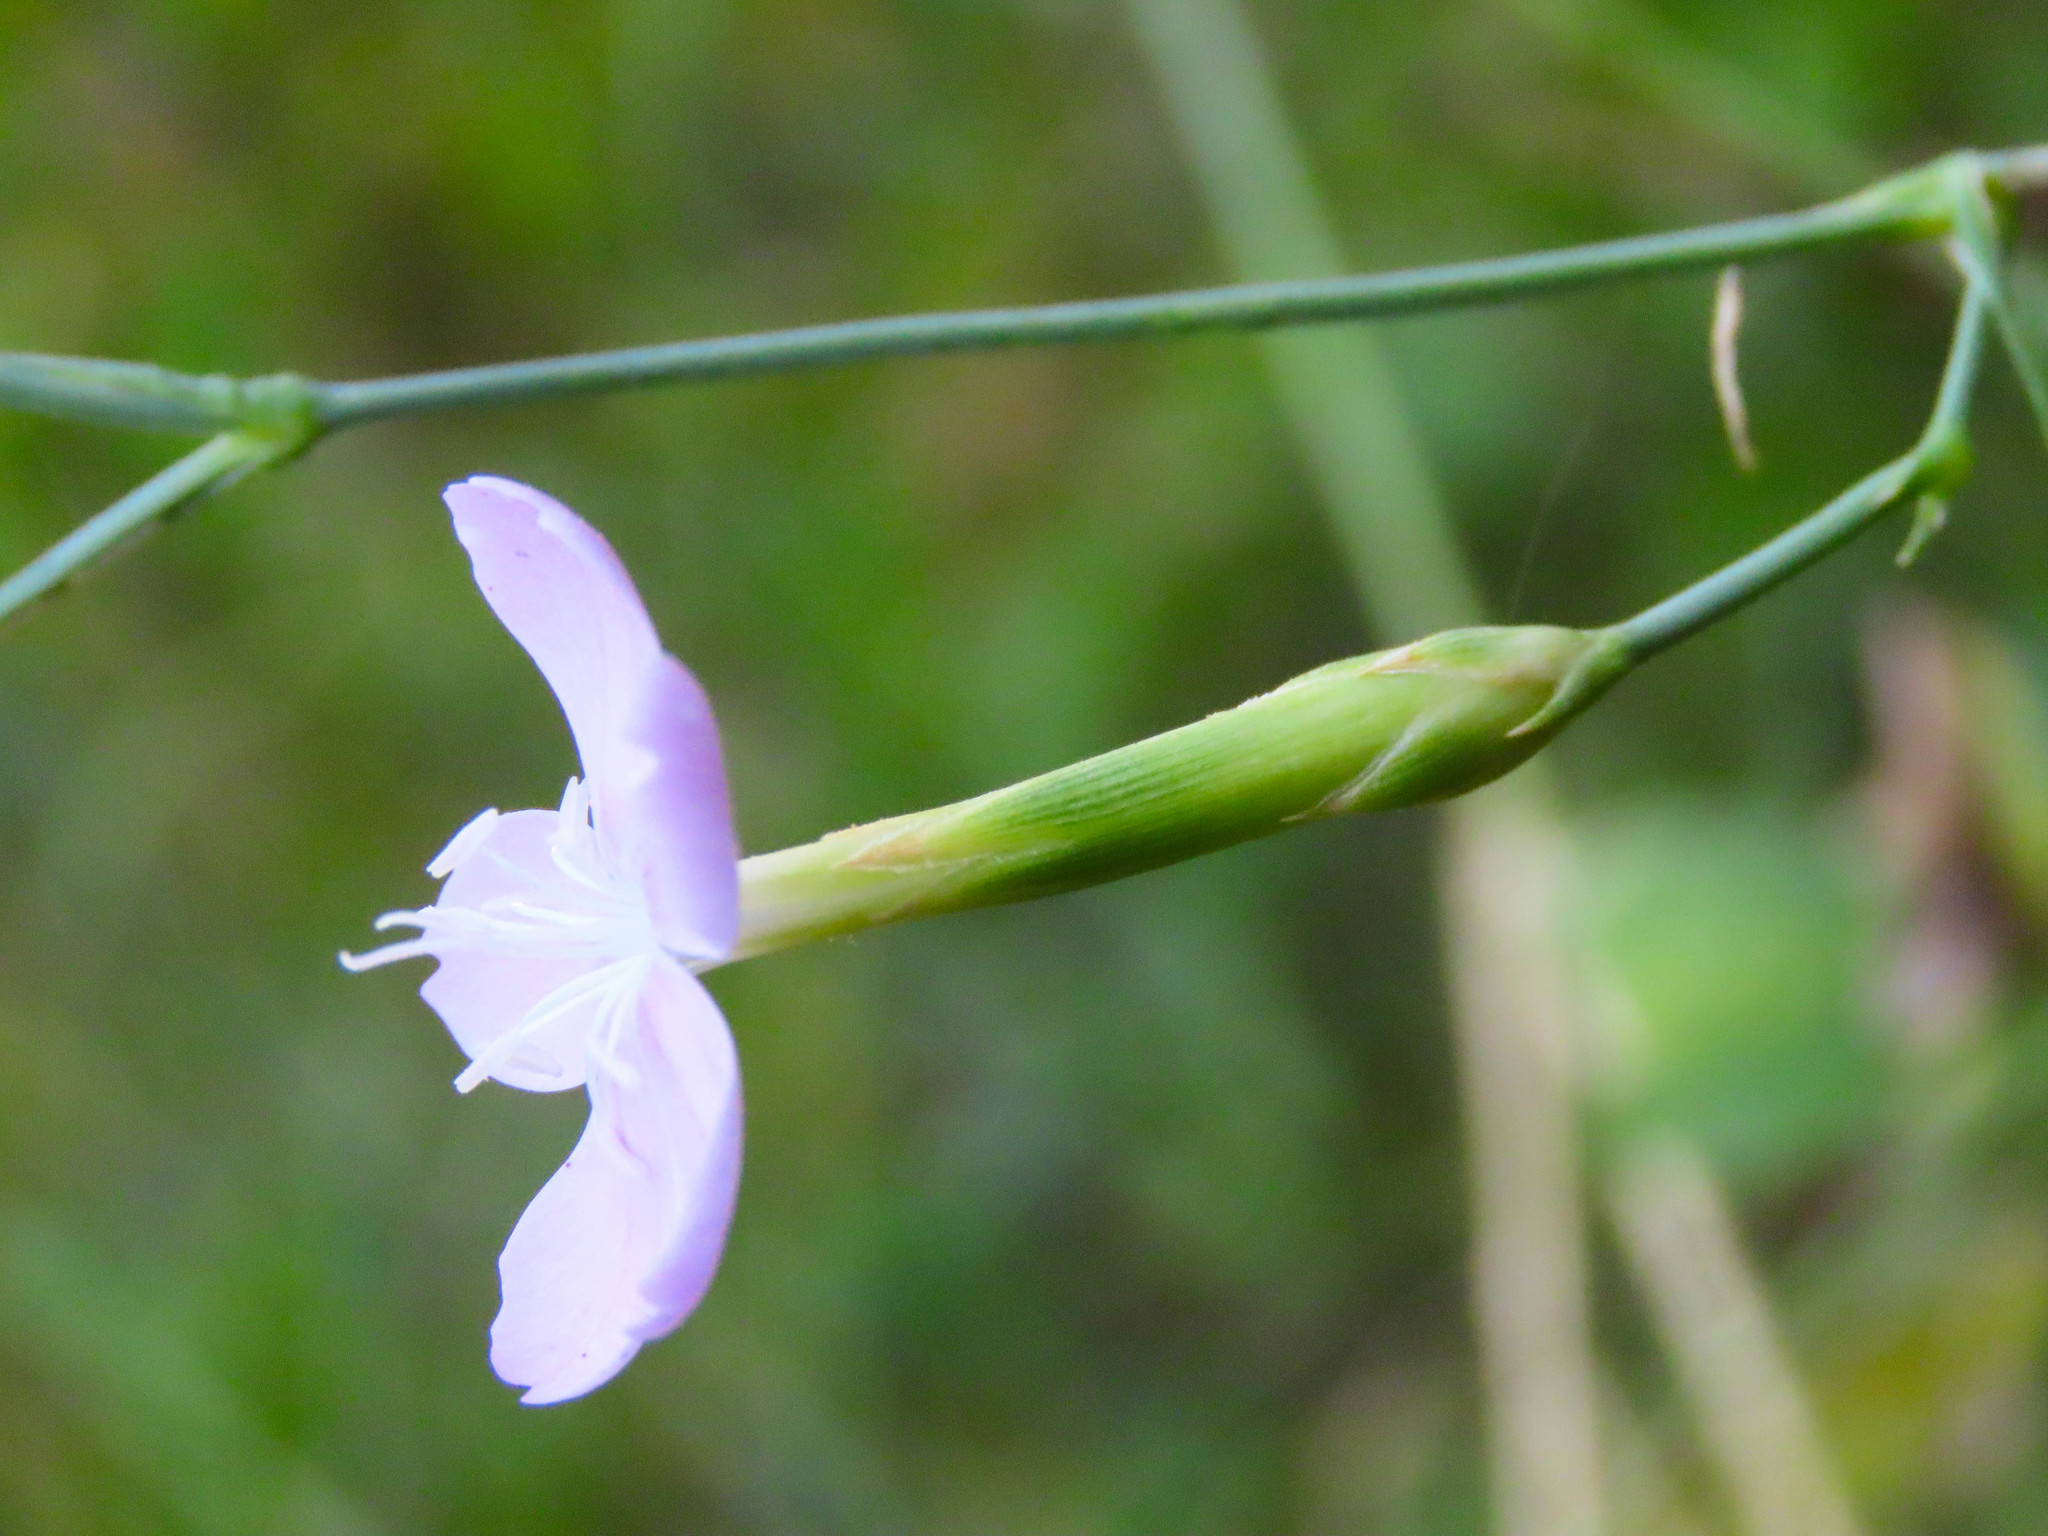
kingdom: Plantae
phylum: Tracheophyta
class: Magnoliopsida
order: Caryophyllales
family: Caryophyllaceae
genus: Dianthus
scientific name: Dianthus ciliatus
